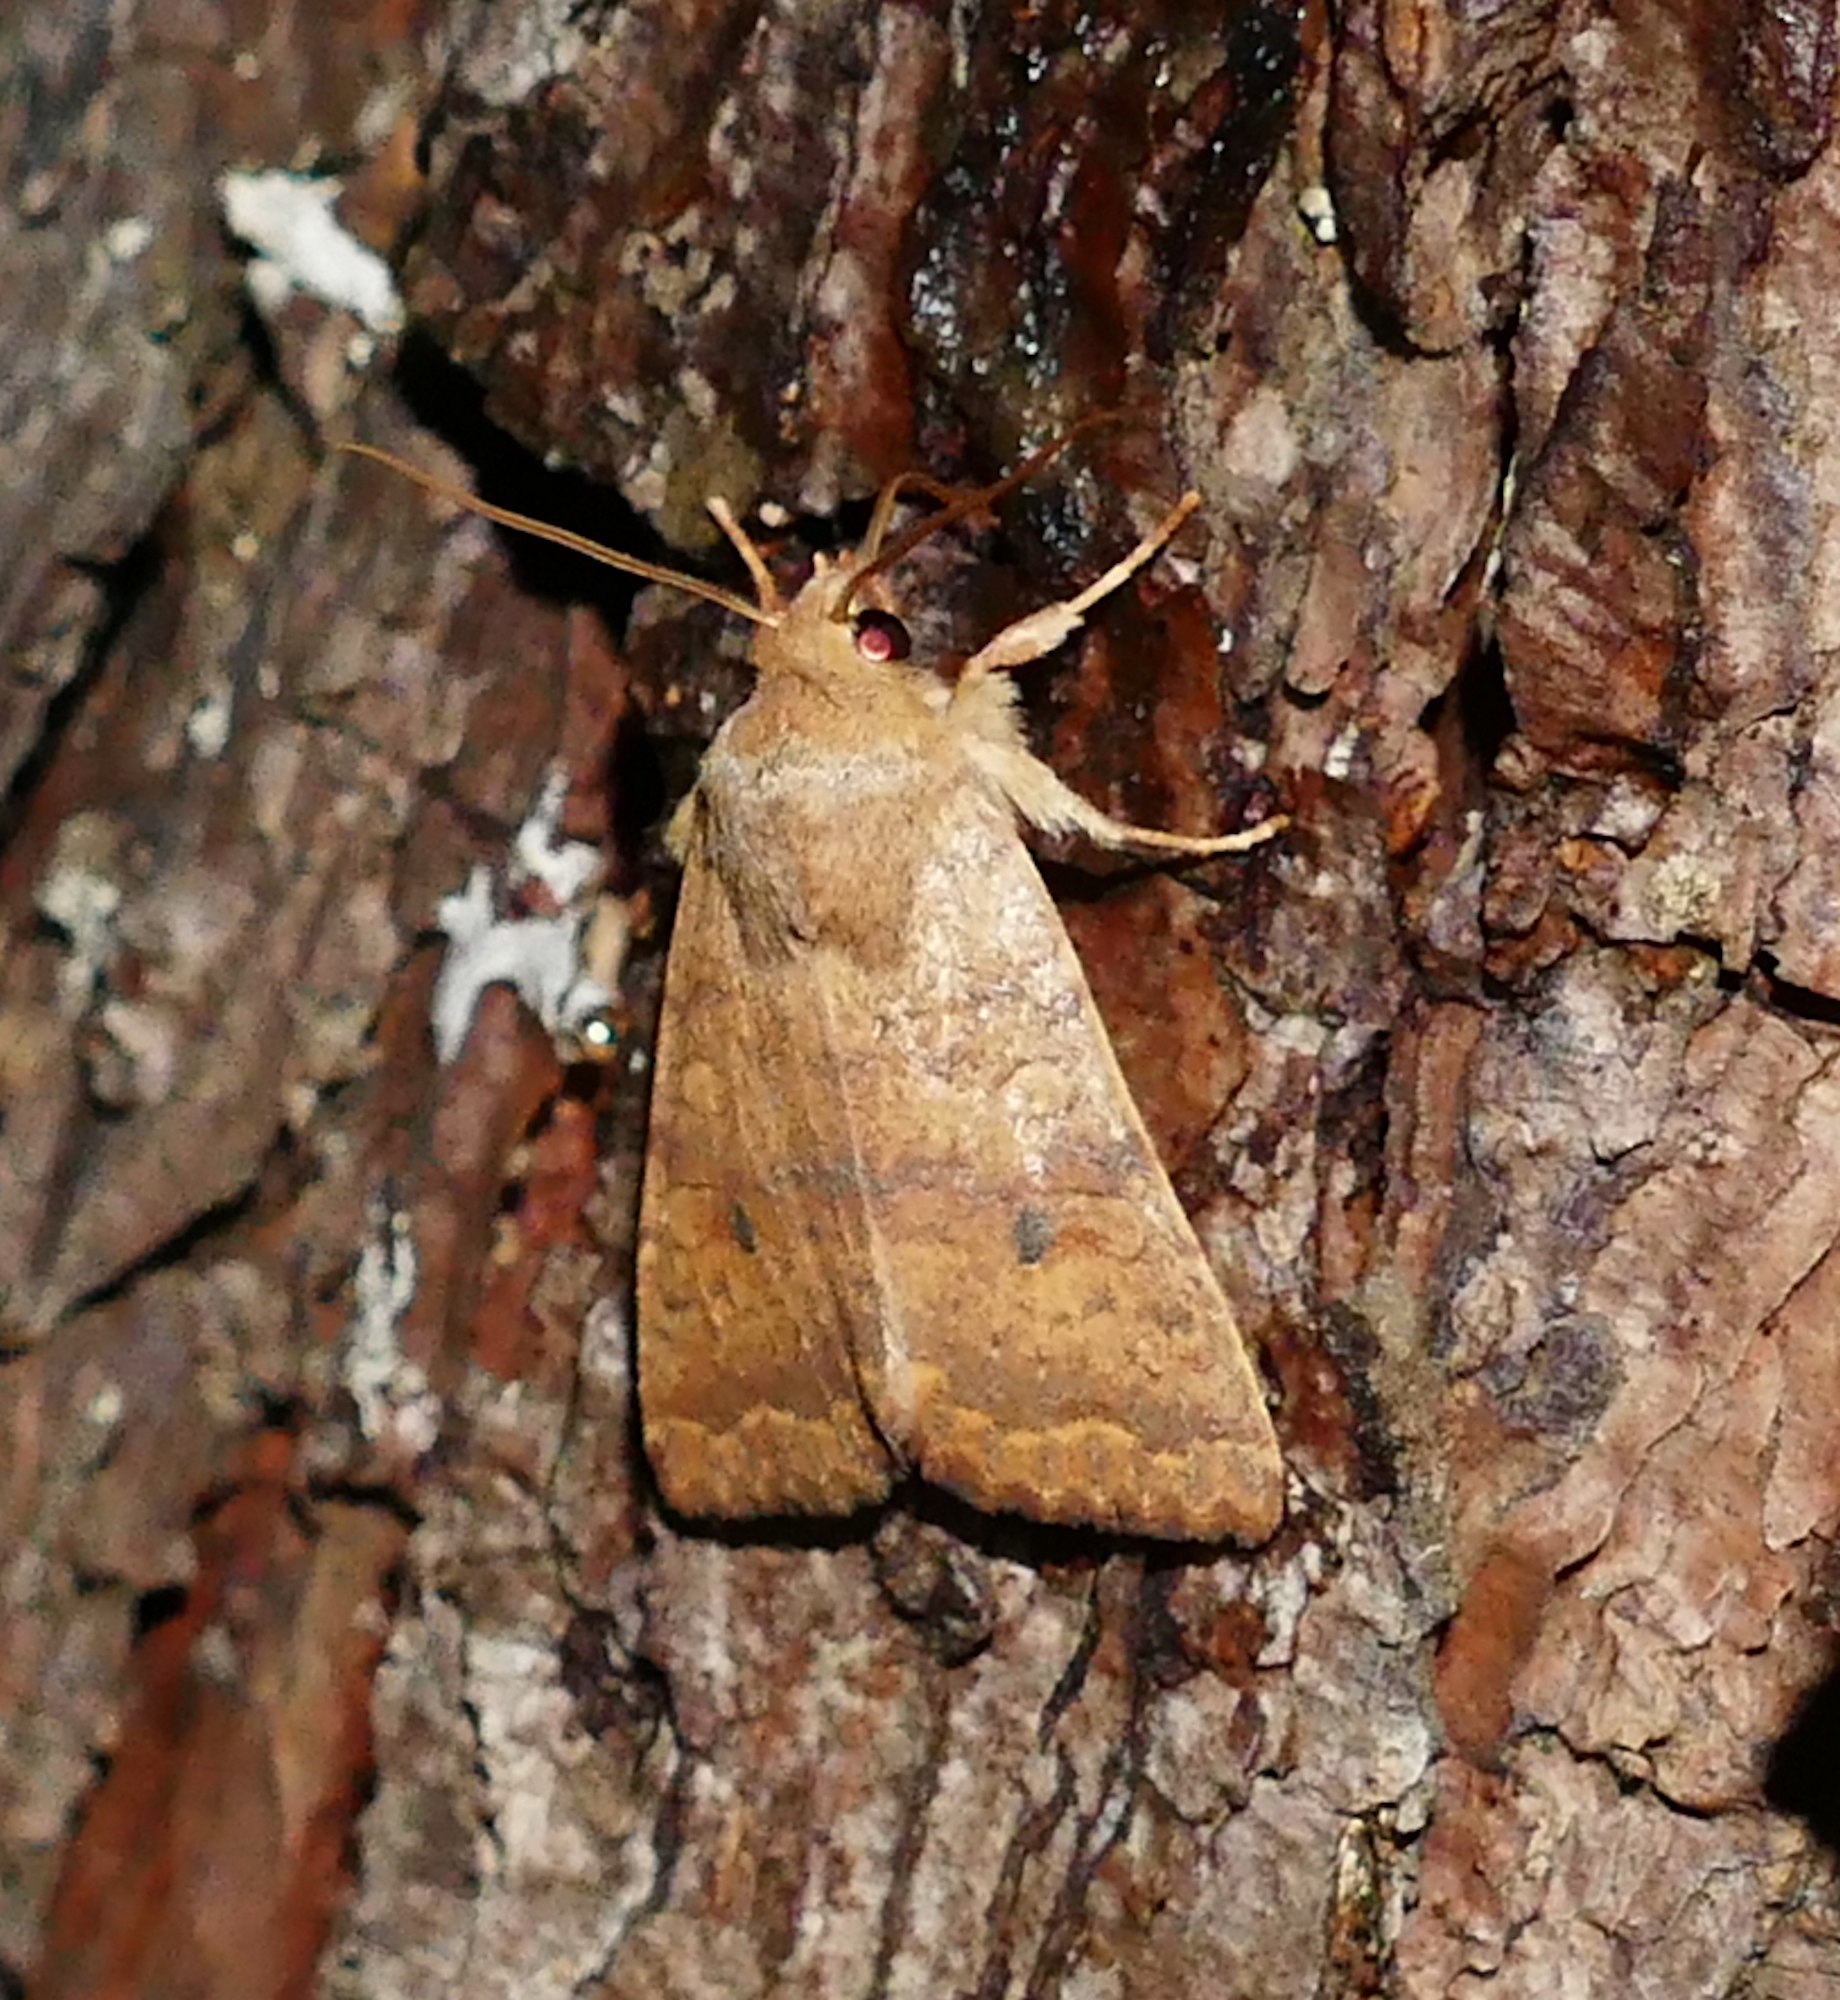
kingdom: Animalia
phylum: Arthropoda
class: Insecta
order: Lepidoptera
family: Noctuidae
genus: Agrochola
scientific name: Agrochola bicolorago
